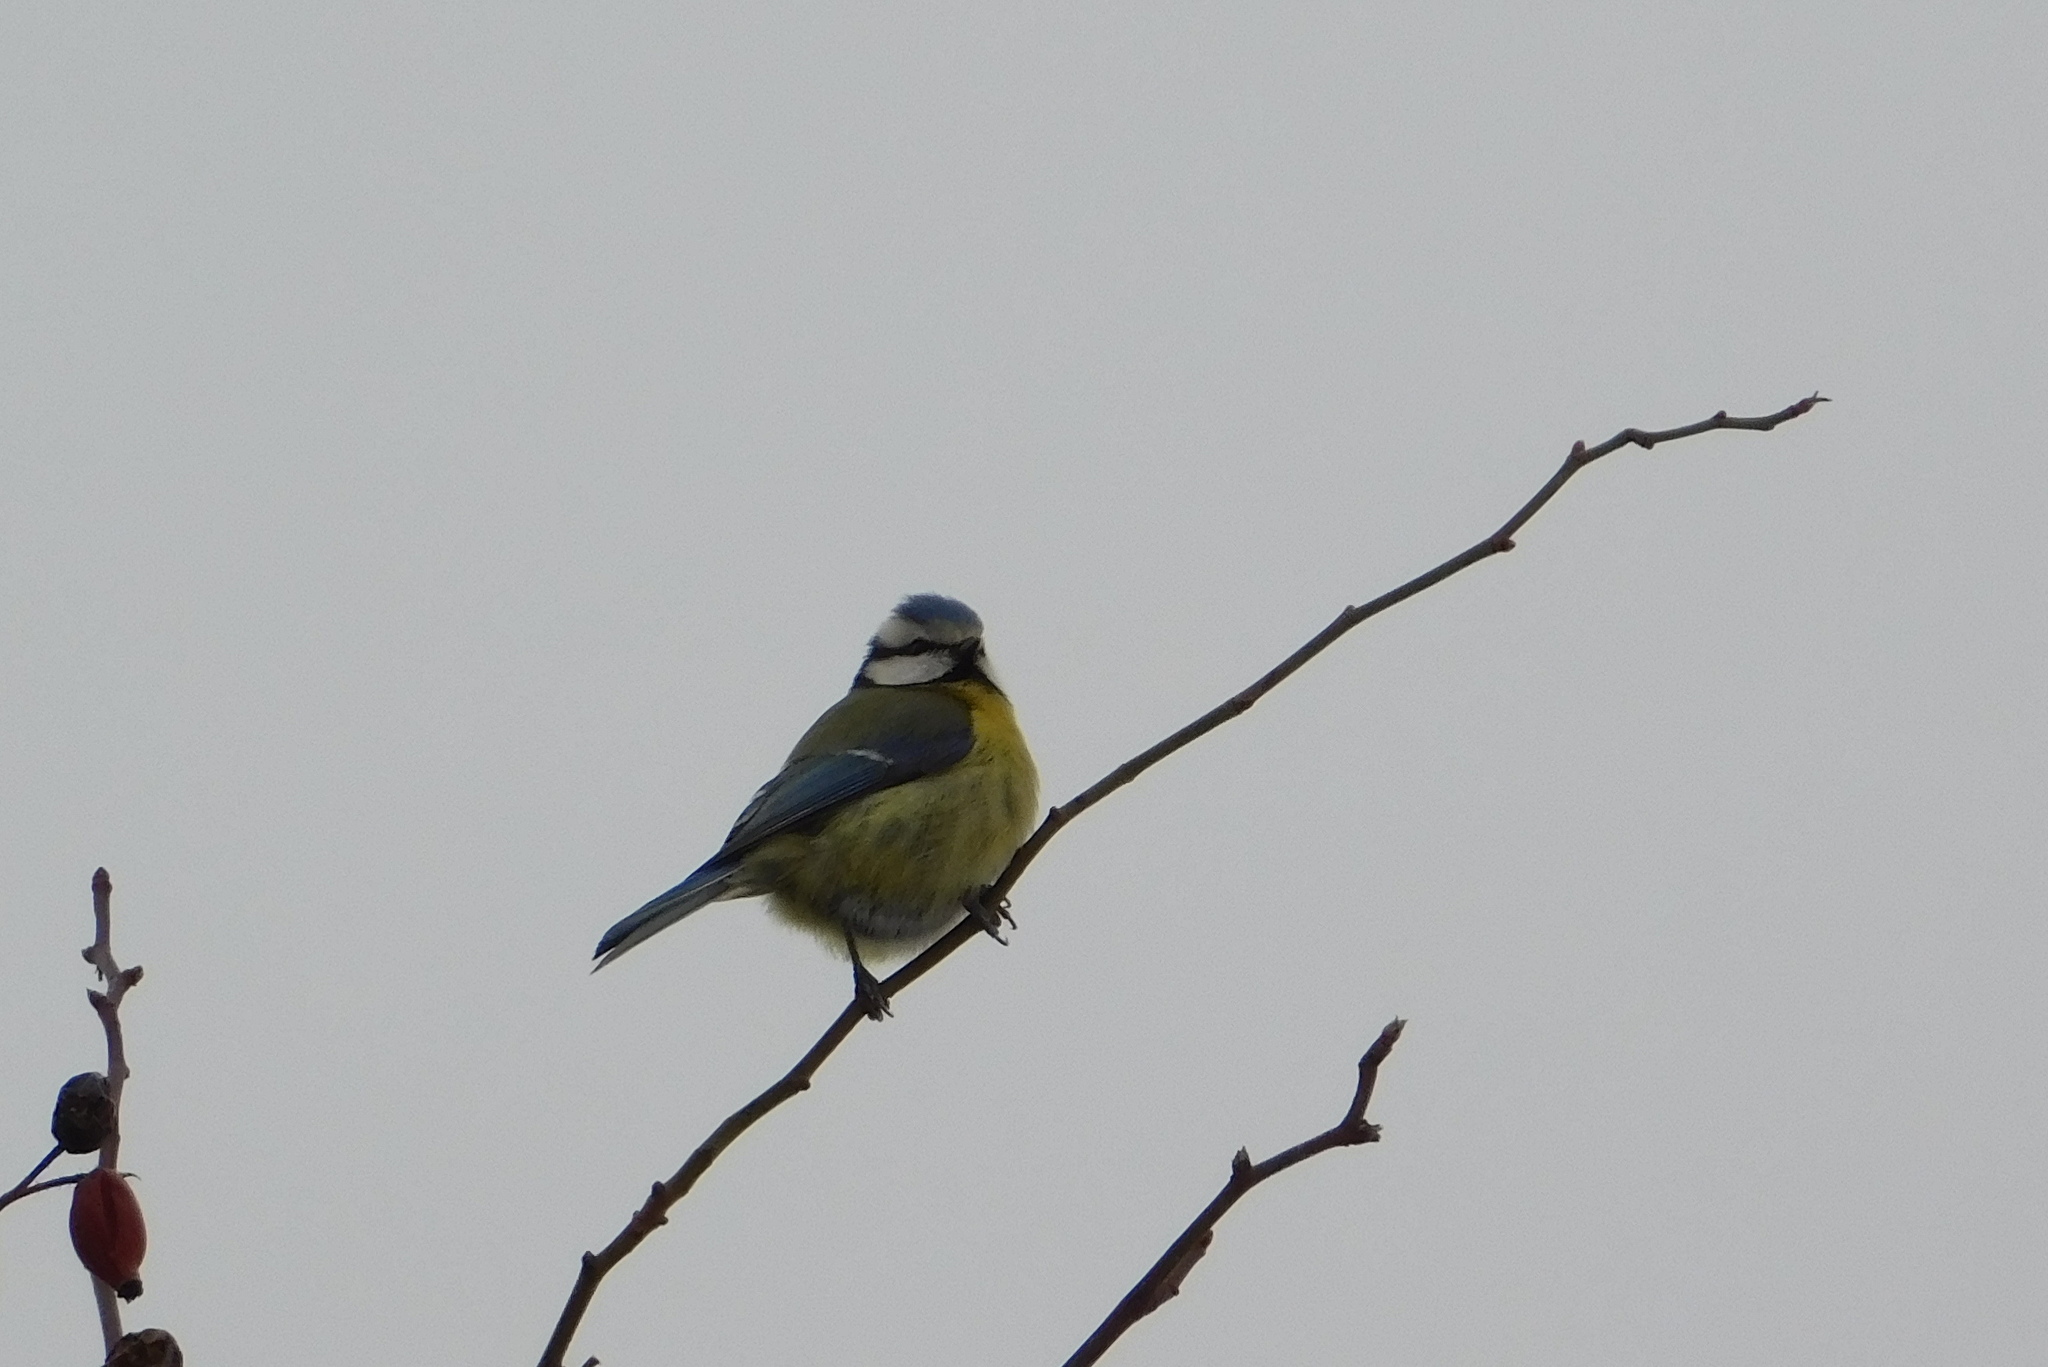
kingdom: Animalia
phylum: Chordata
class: Aves
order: Passeriformes
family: Paridae
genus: Cyanistes
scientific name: Cyanistes caeruleus
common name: Eurasian blue tit
